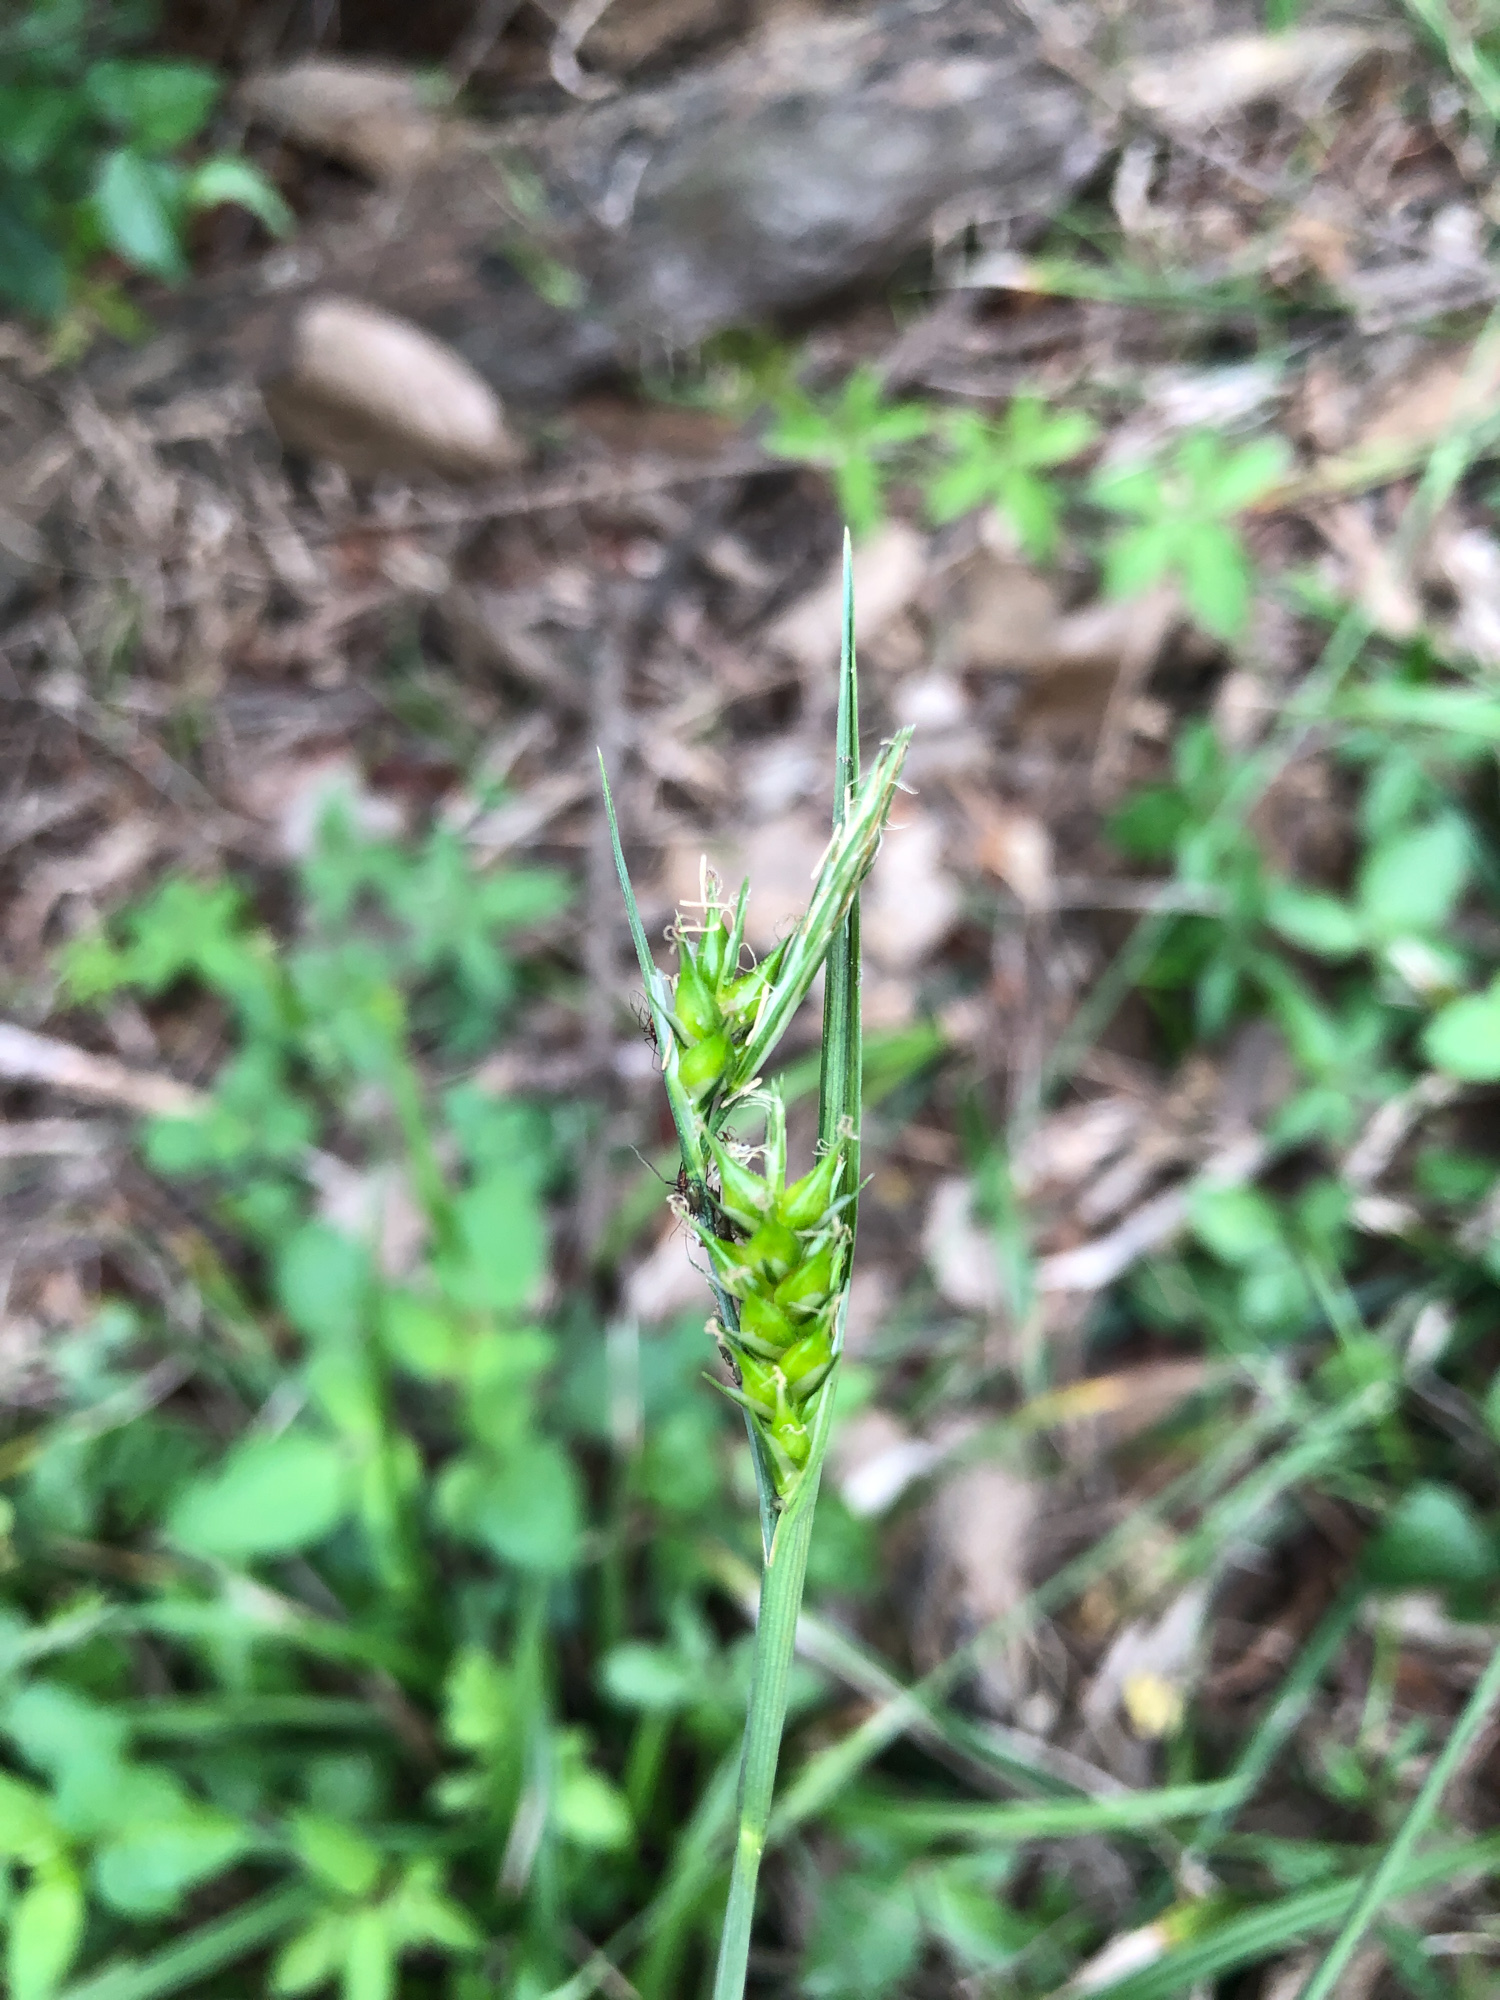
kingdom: Plantae
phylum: Tracheophyta
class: Liliopsida
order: Poales
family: Cyperaceae
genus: Carex
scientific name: Carex breviculmis
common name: Asian shortstem sedge
